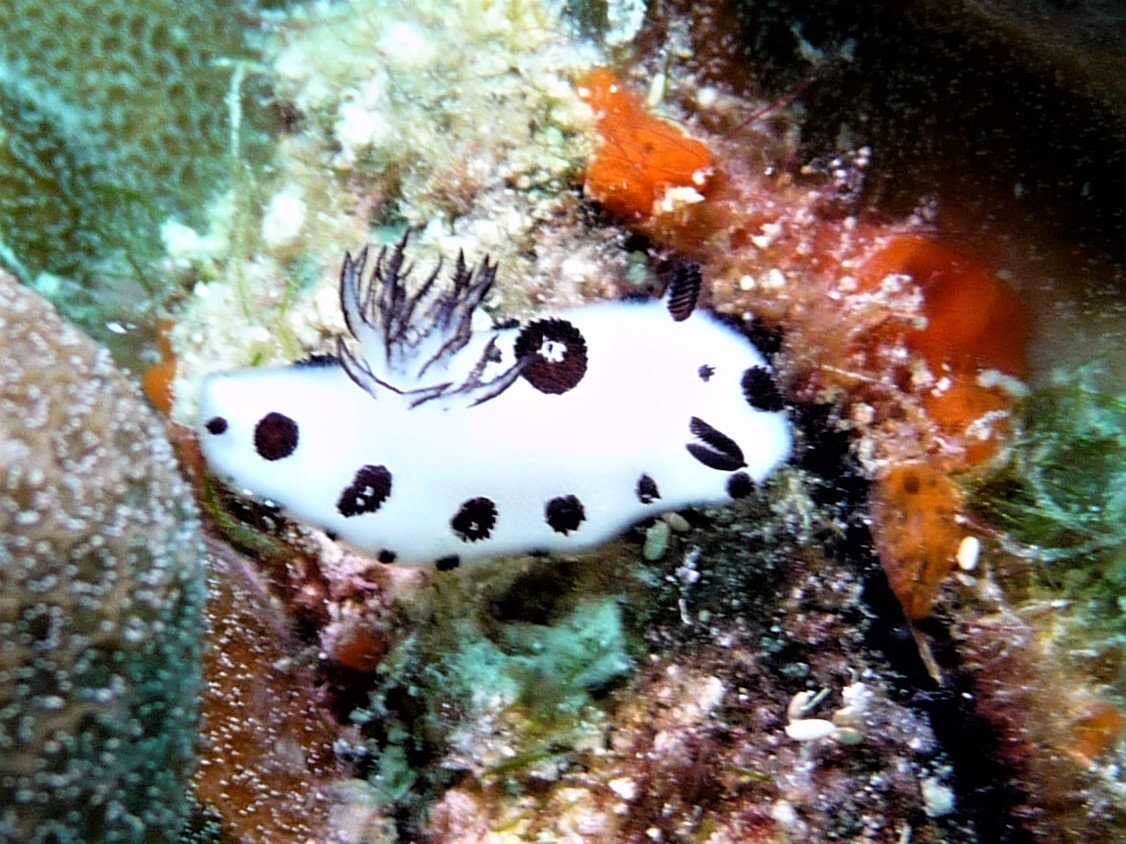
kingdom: Animalia
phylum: Mollusca
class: Gastropoda
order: Nudibranchia
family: Discodorididae
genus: Jorunna
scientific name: Jorunna funebris
